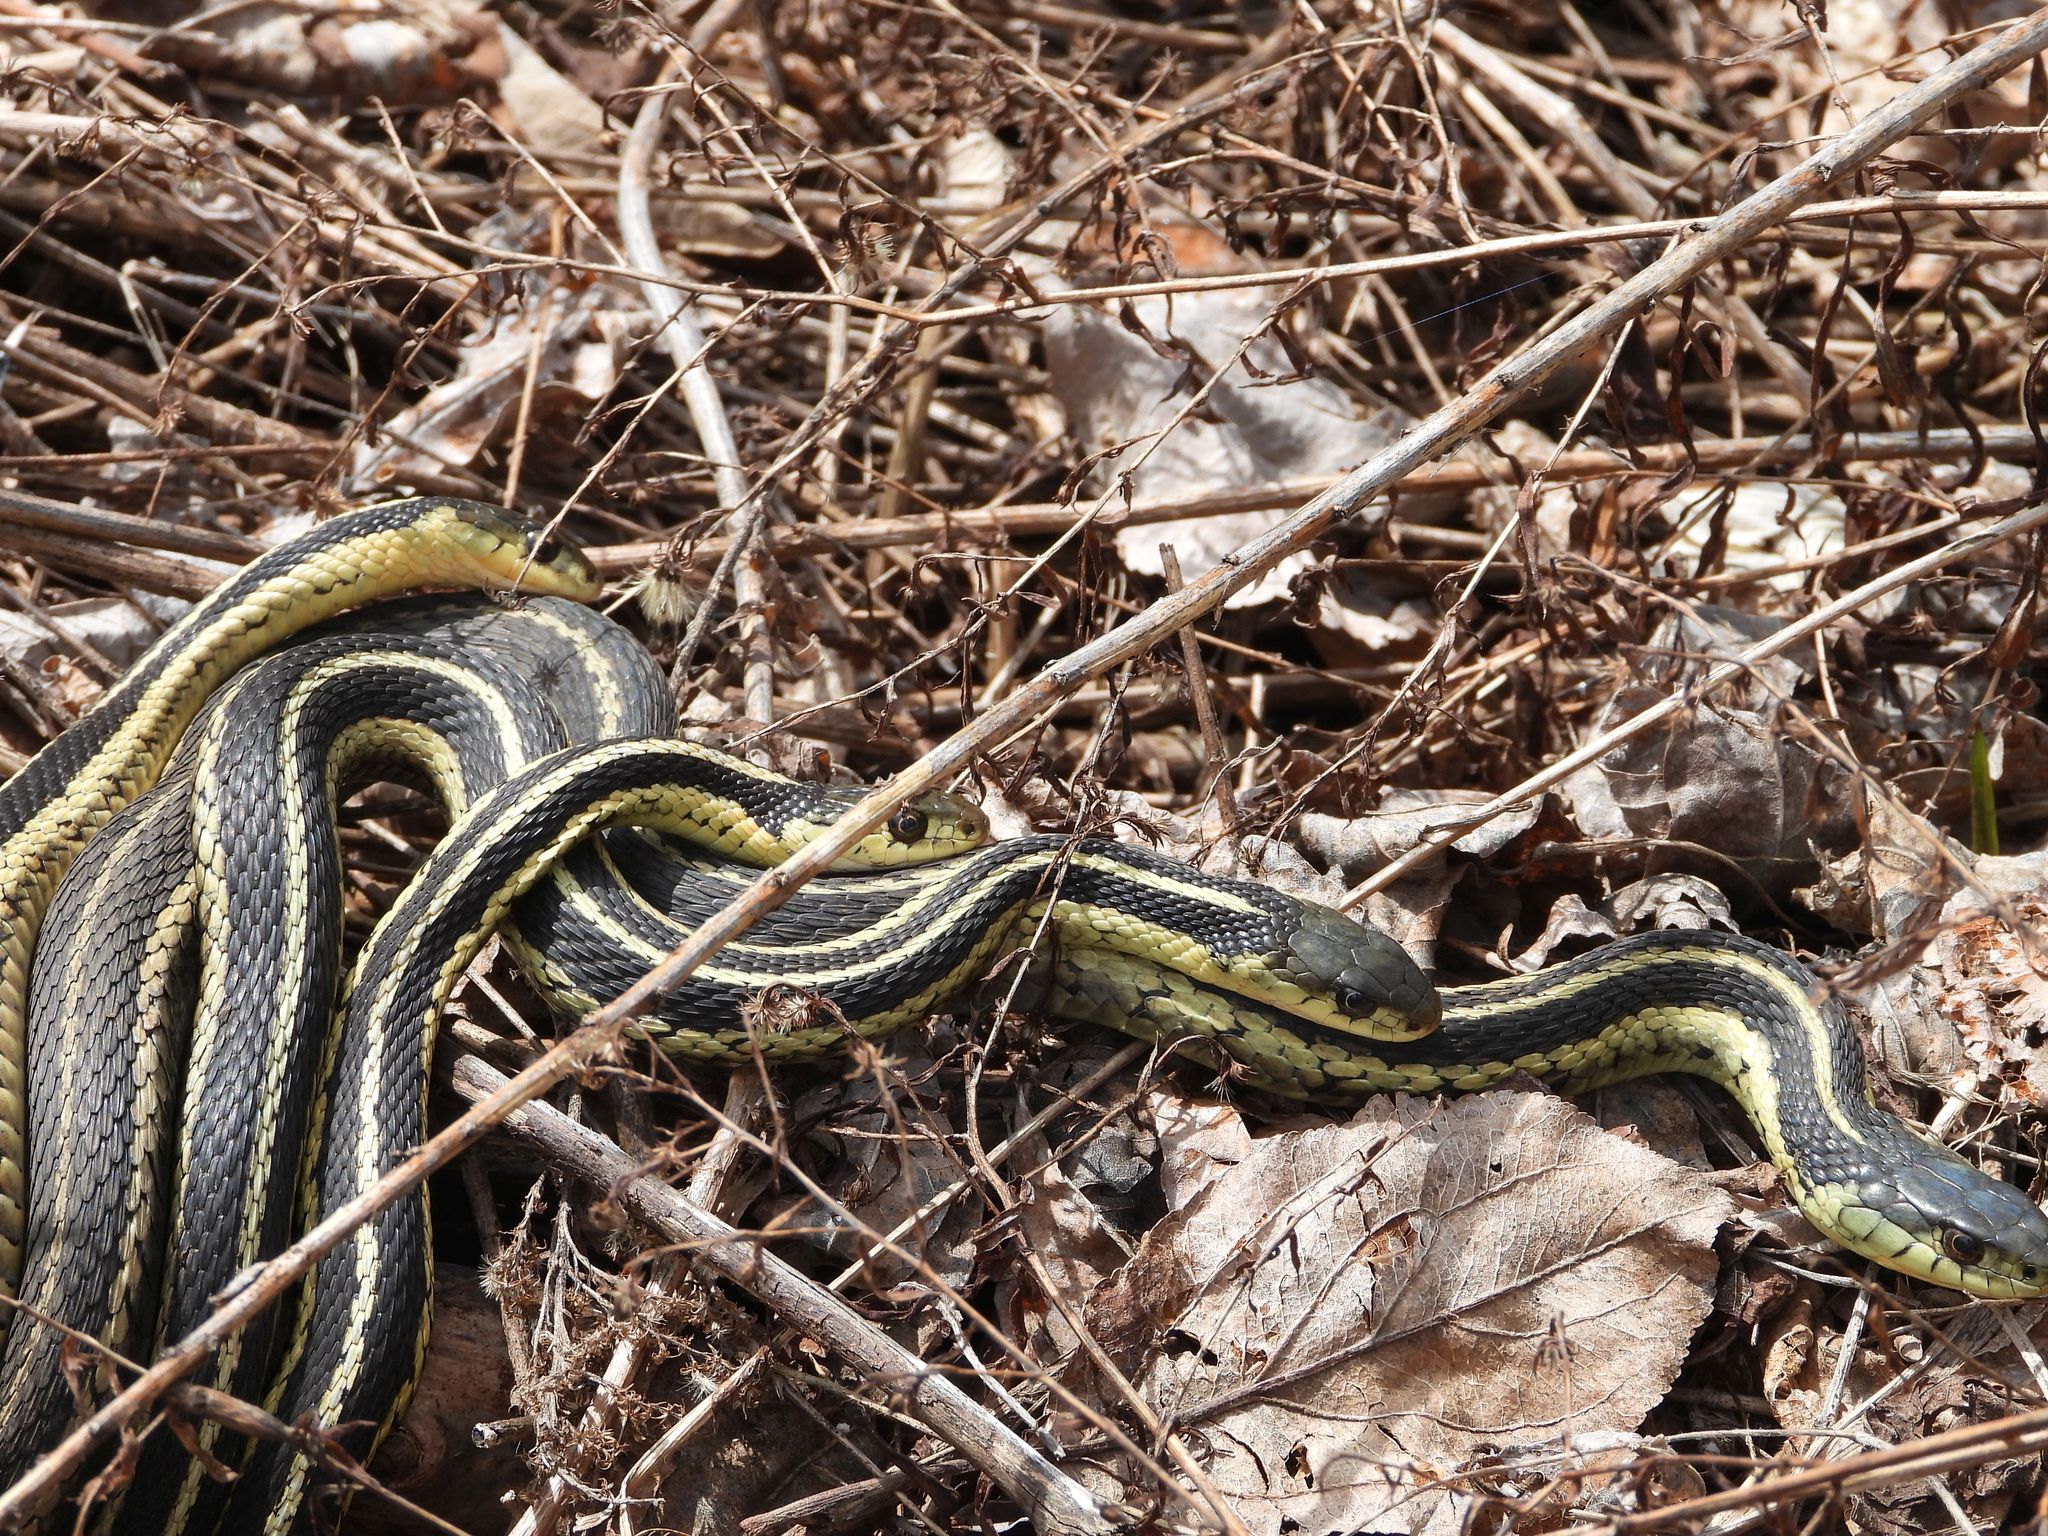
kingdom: Animalia
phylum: Chordata
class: Squamata
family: Colubridae
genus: Thamnophis
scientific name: Thamnophis sirtalis
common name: Common garter snake
